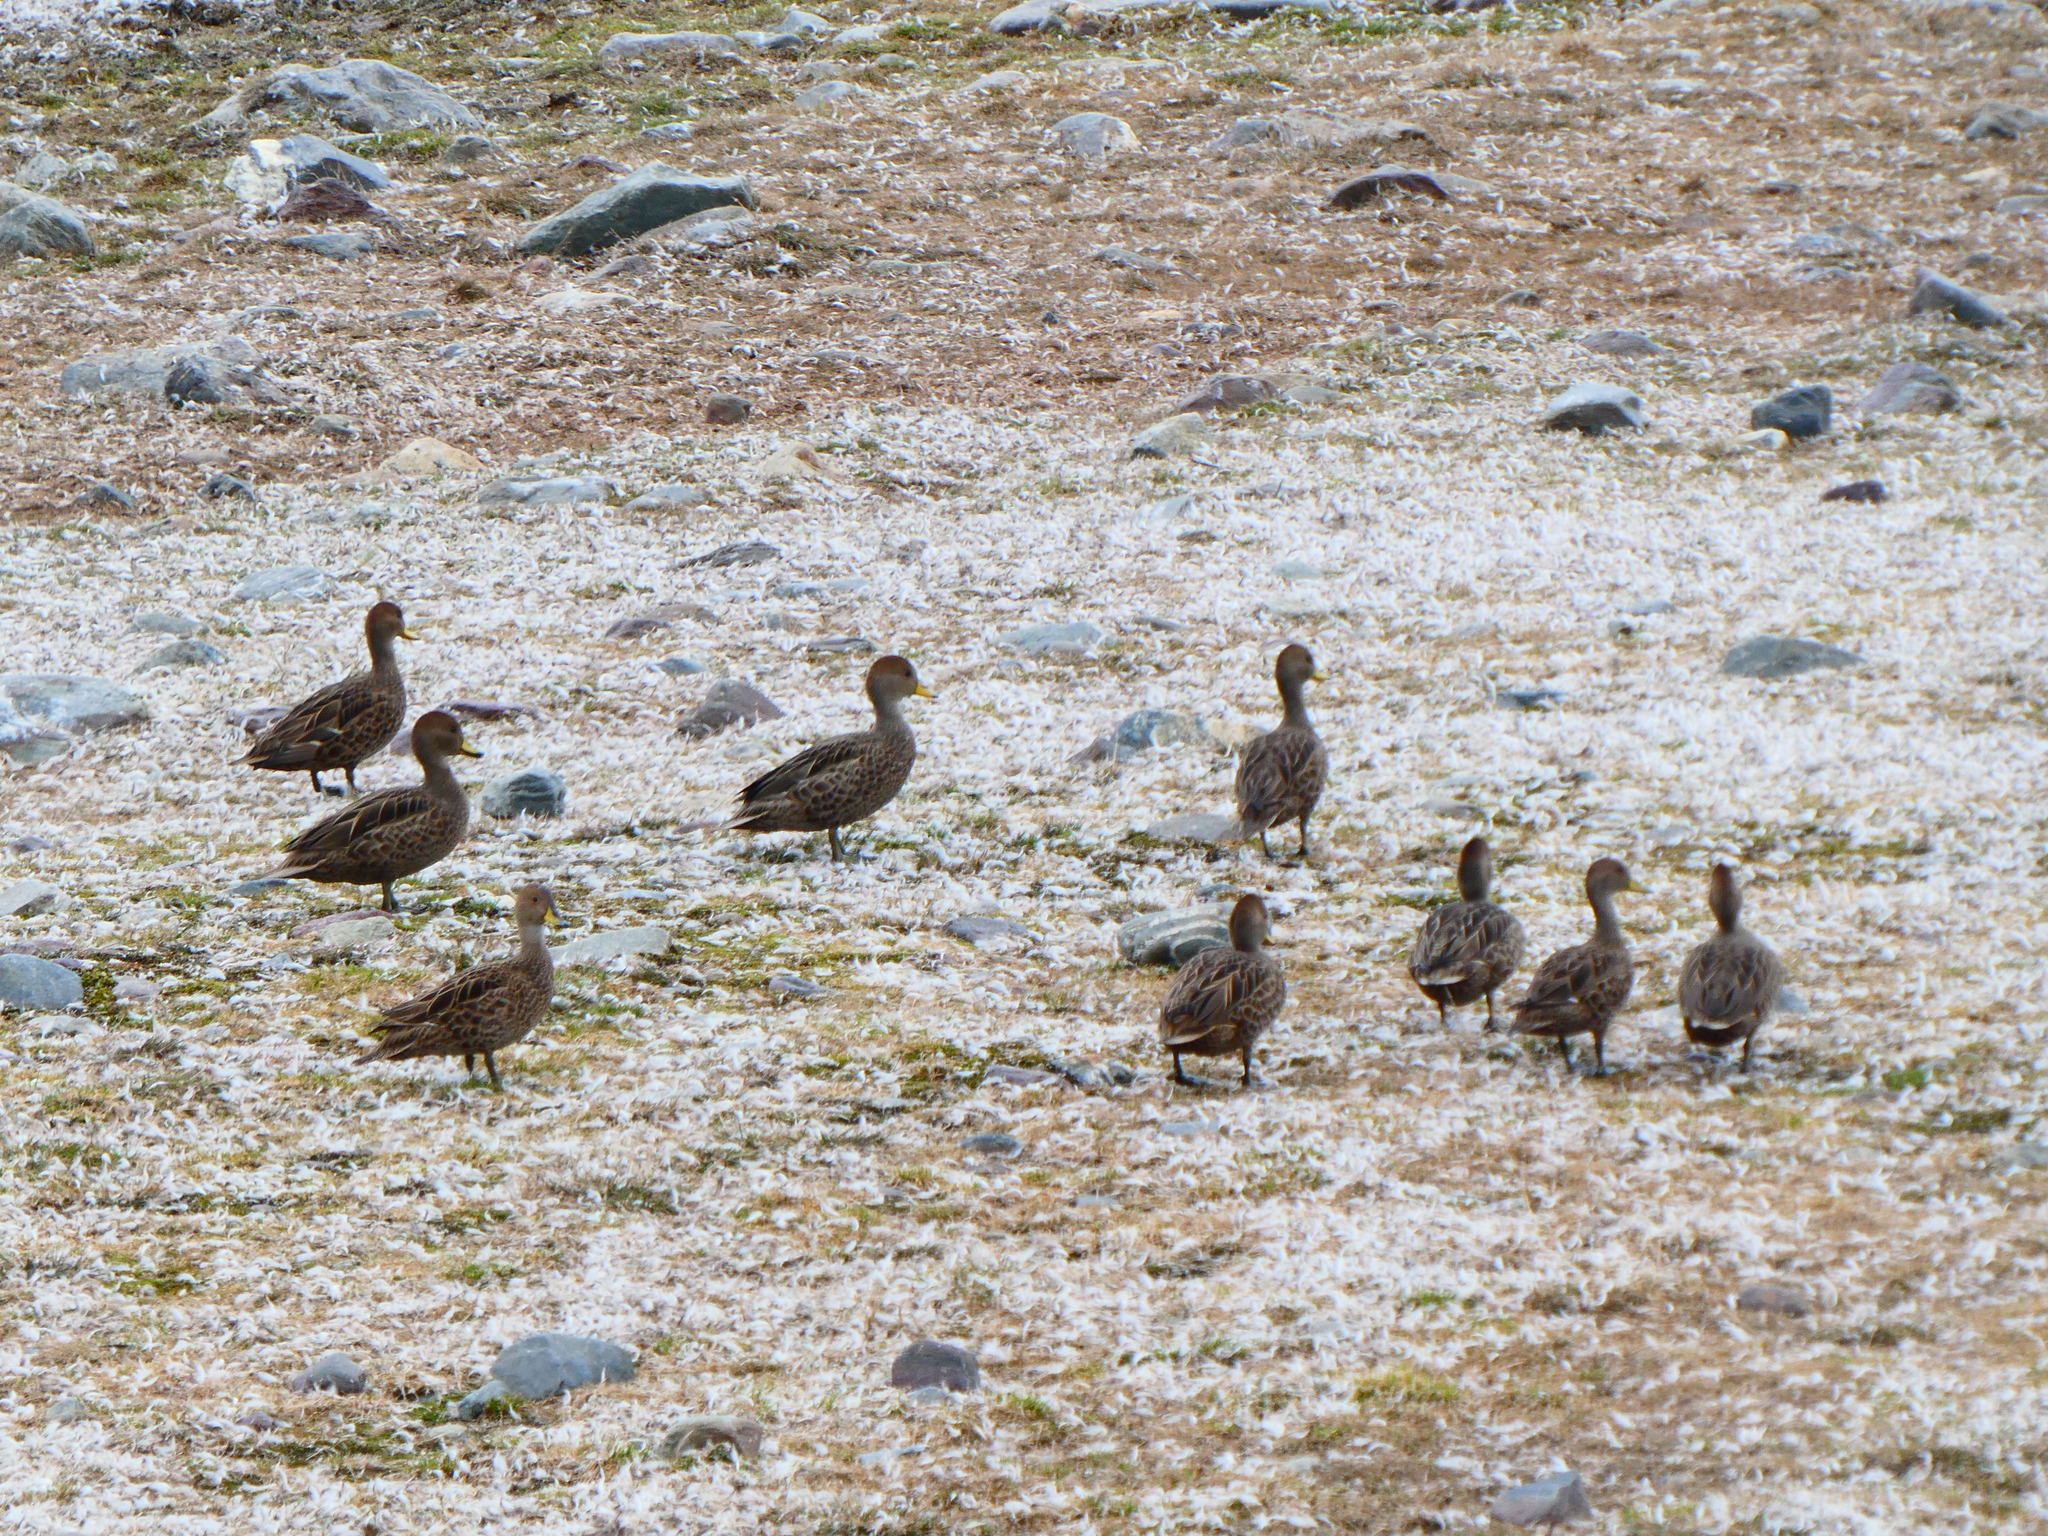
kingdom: Animalia
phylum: Chordata
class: Aves
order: Anseriformes
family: Anatidae
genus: Anas
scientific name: Anas georgica
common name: Yellow-billed pintail
